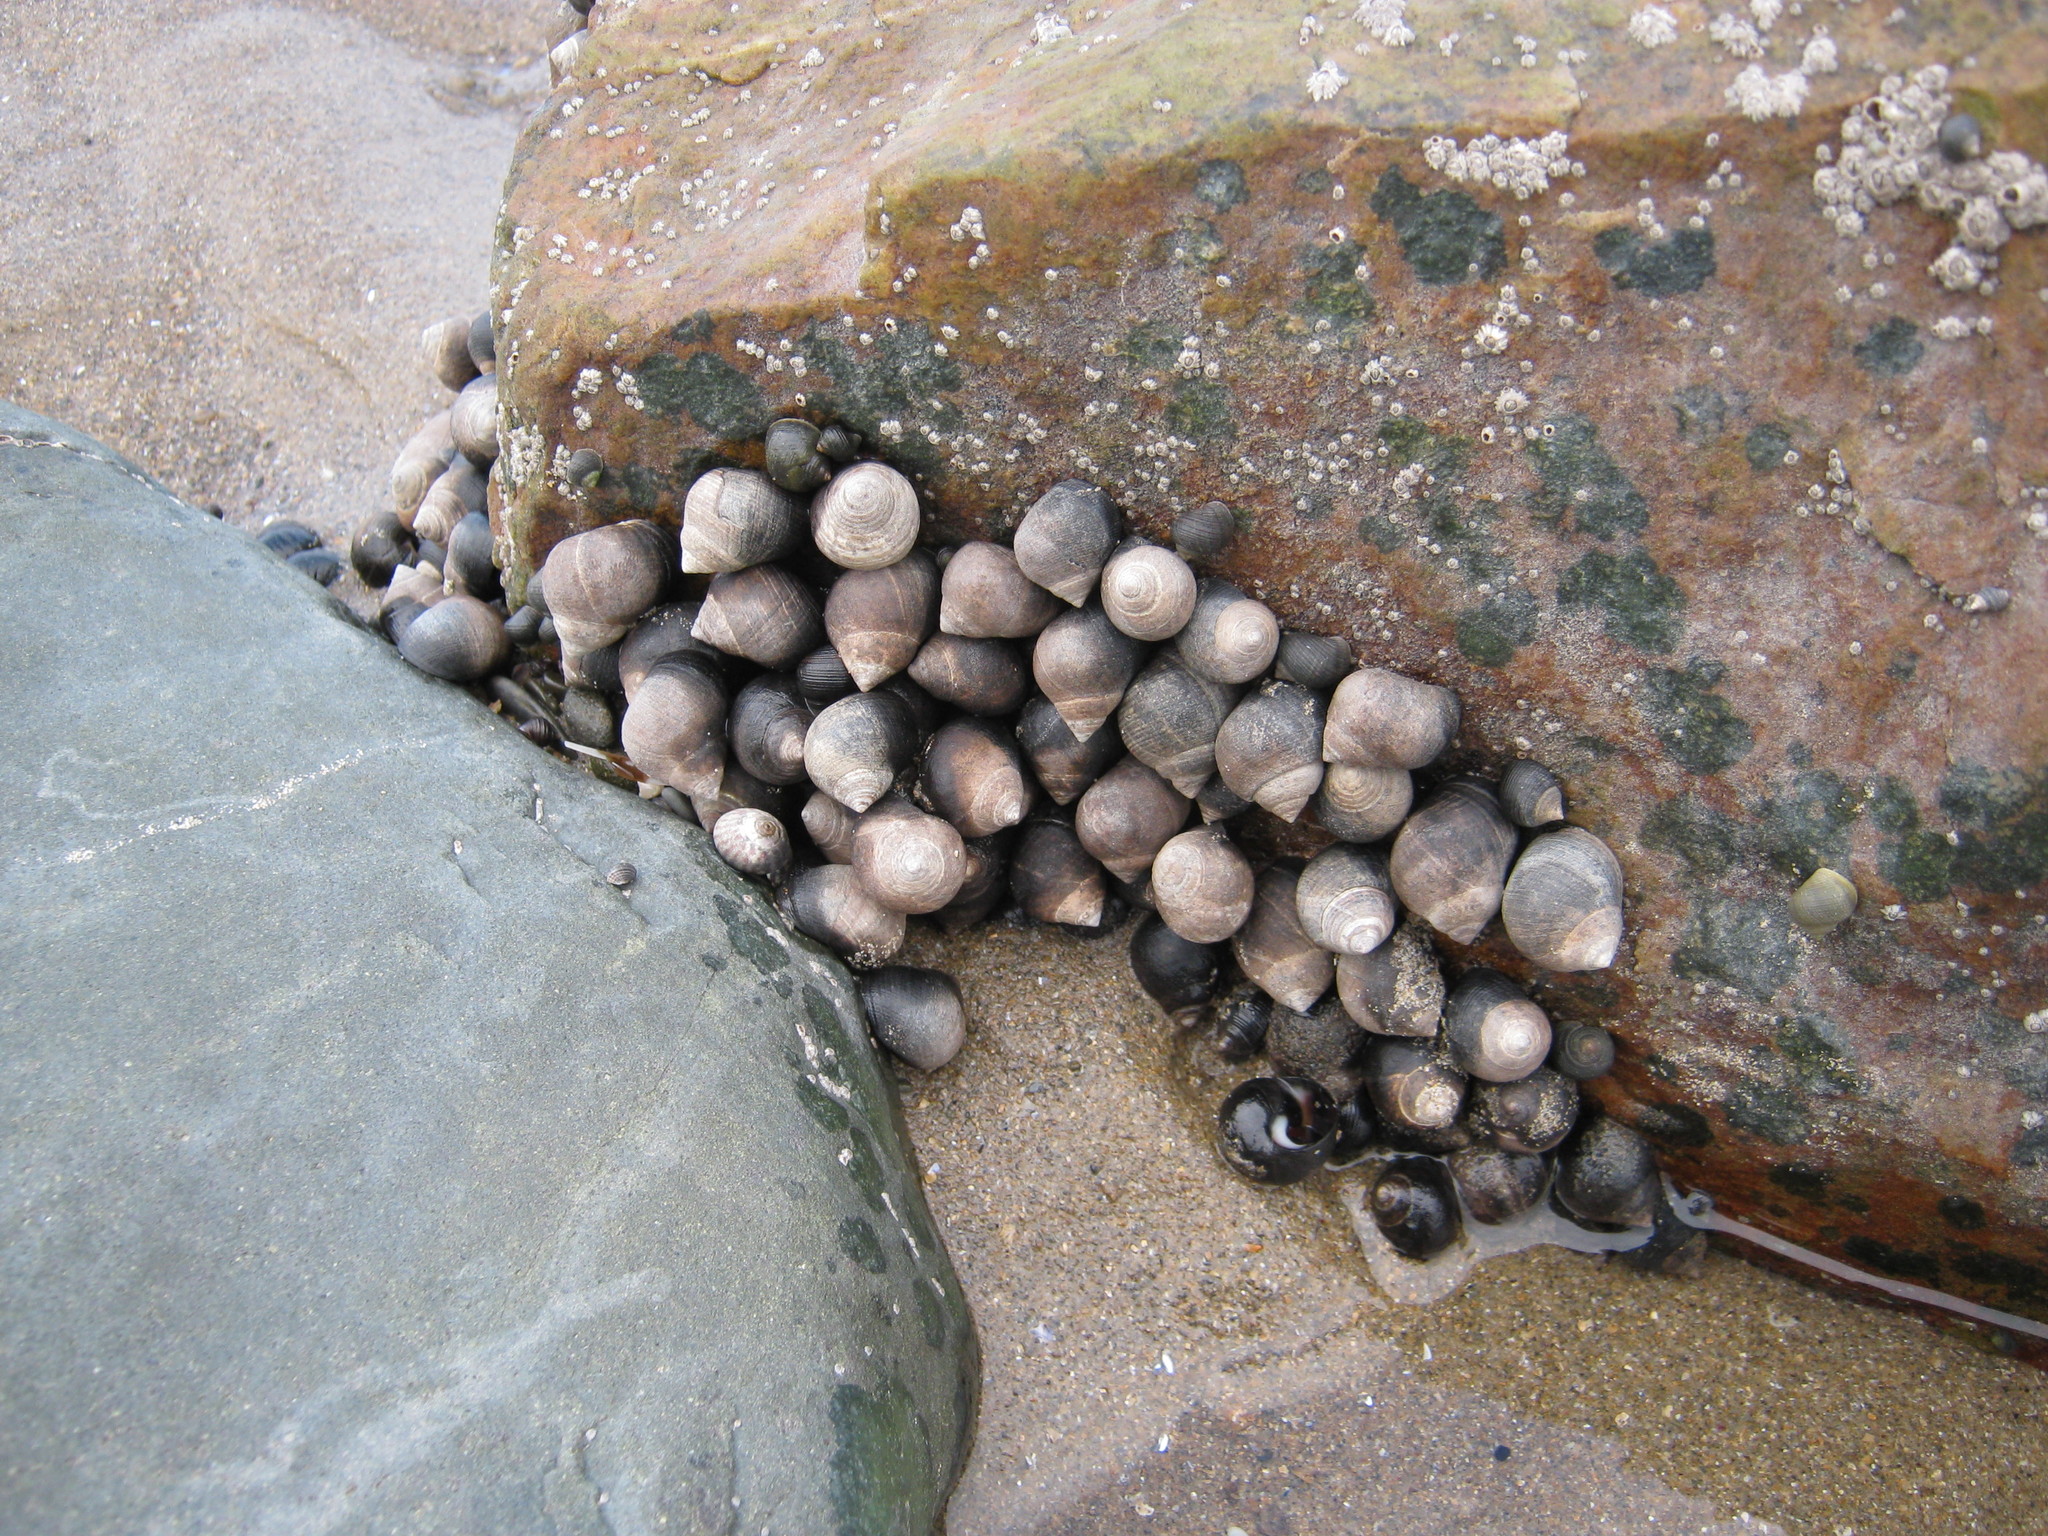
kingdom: Animalia
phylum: Mollusca
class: Gastropoda
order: Littorinimorpha
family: Littorinidae
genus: Littorina
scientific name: Littorina littorea
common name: Common periwinkle
